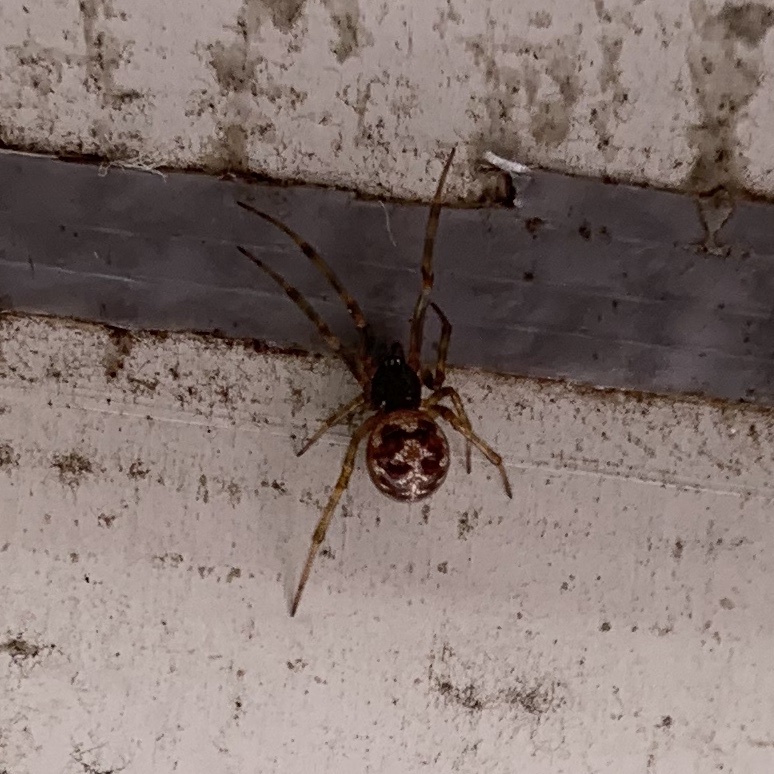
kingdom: Animalia
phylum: Arthropoda
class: Arachnida
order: Araneae
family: Theridiidae
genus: Steatoda
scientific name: Steatoda triangulosa
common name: Triangulate bud spider
